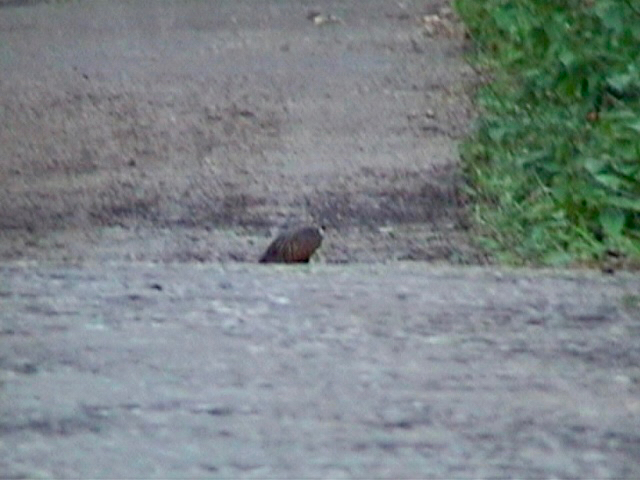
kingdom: Animalia
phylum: Chordata
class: Aves
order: Galliformes
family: Phasianidae
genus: Perdicula
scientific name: Perdicula erythrorhyncha
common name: Painted bush-quail
